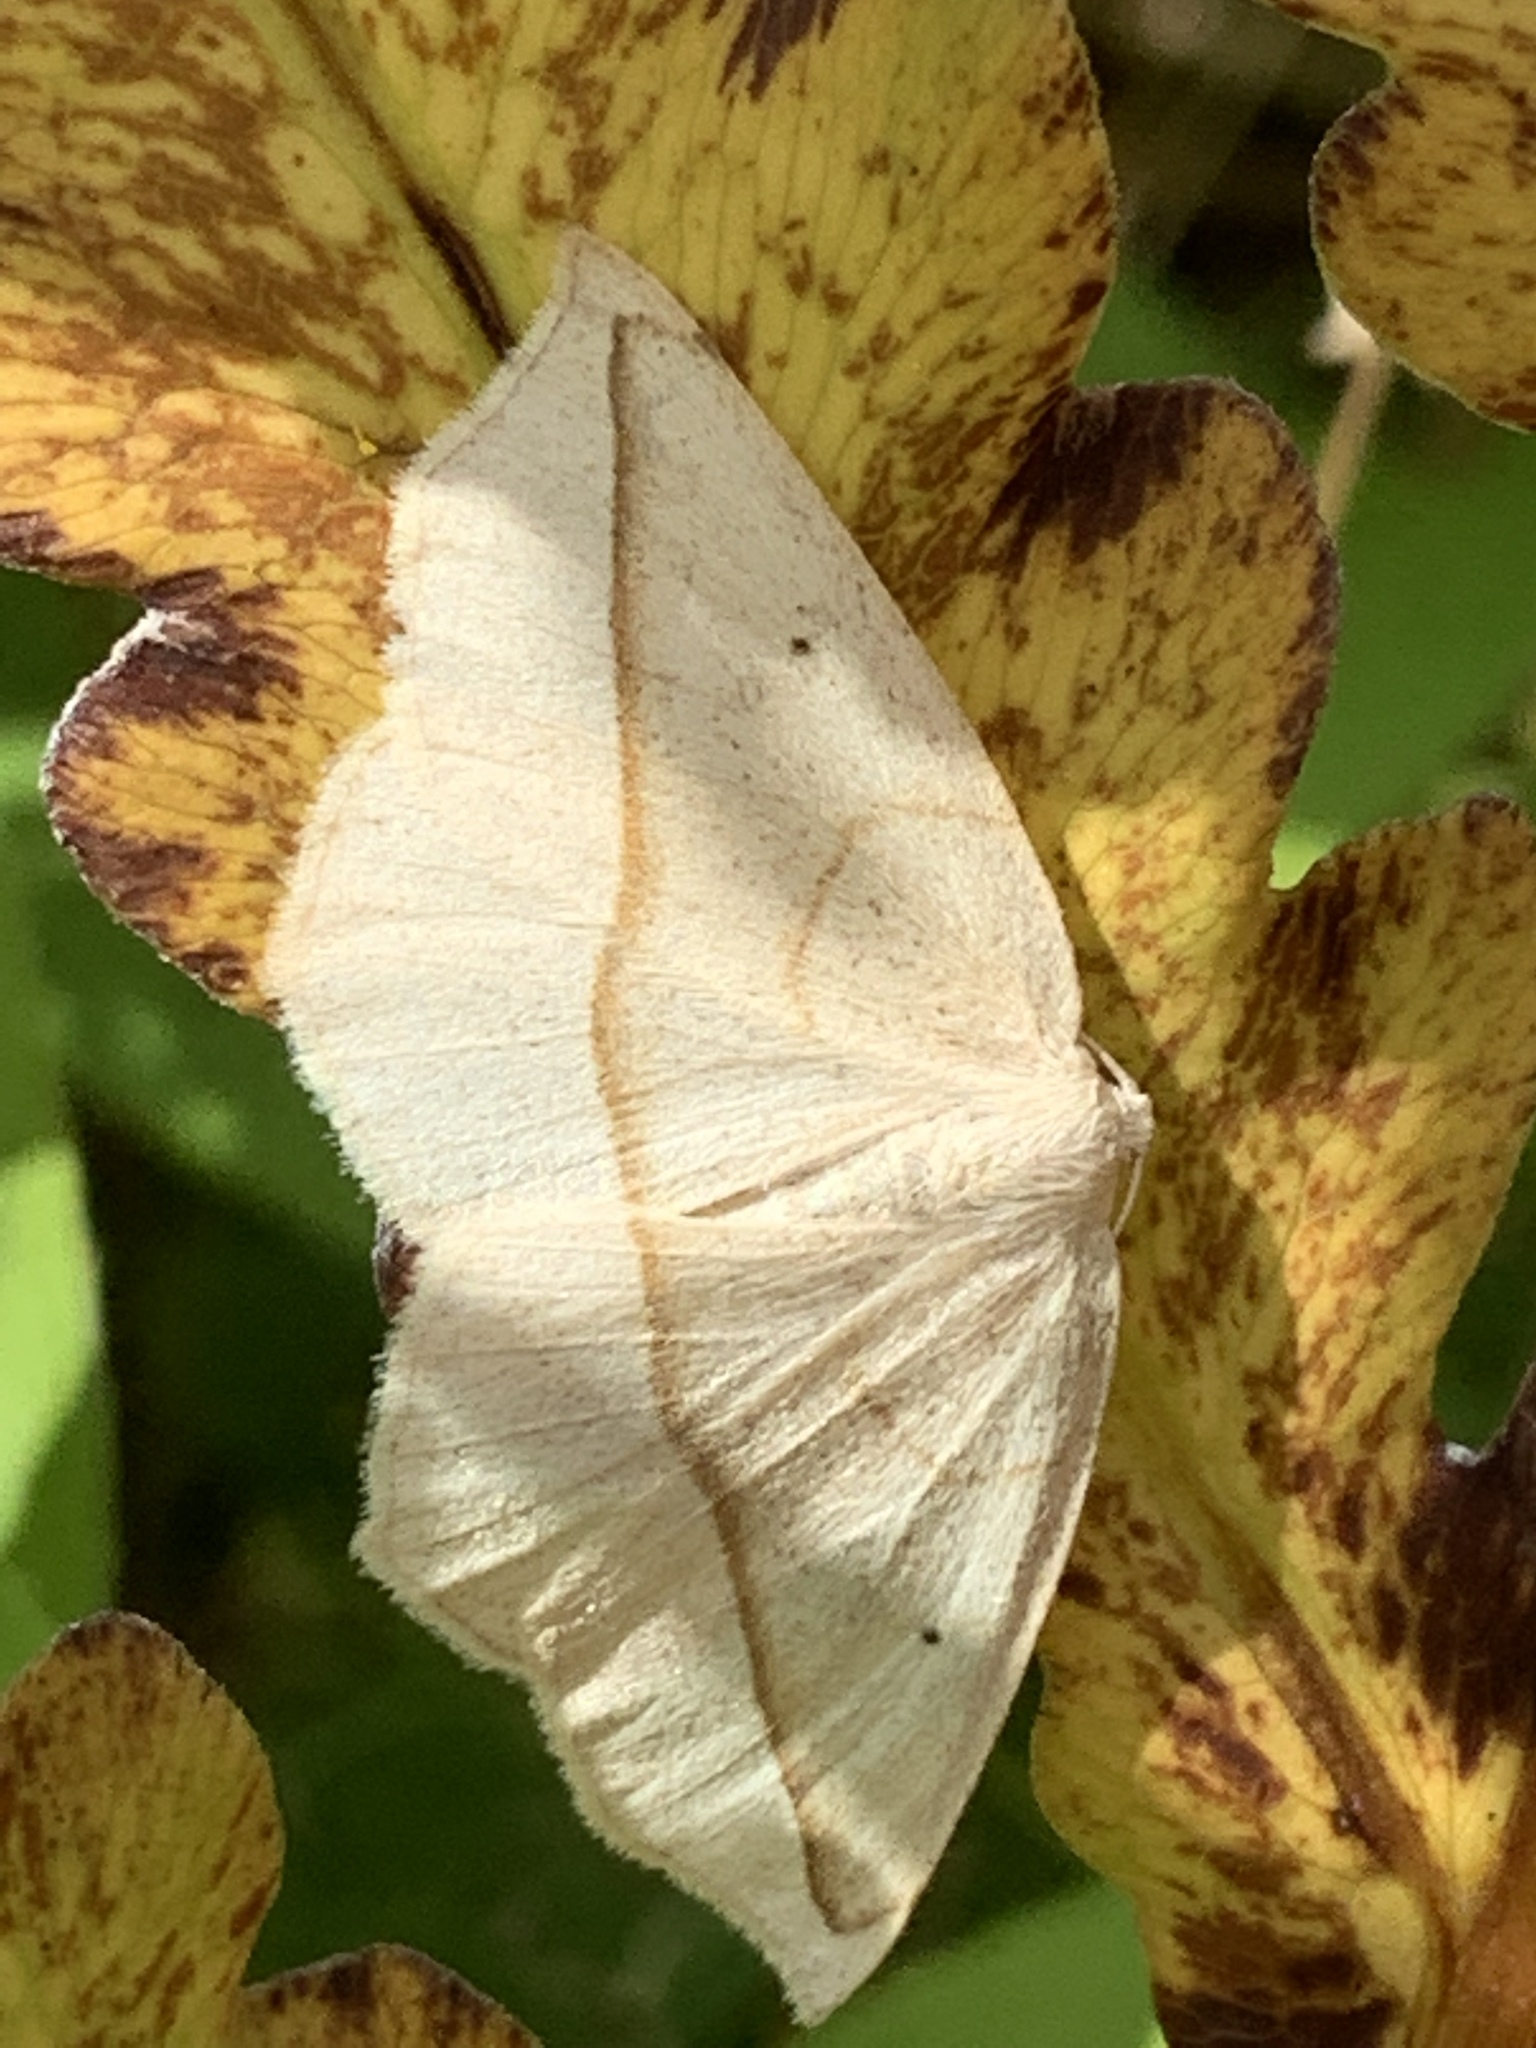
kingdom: Animalia
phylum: Arthropoda
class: Insecta
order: Lepidoptera
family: Geometridae
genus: Eusarca
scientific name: Eusarca confusaria
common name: Confused eusarca
